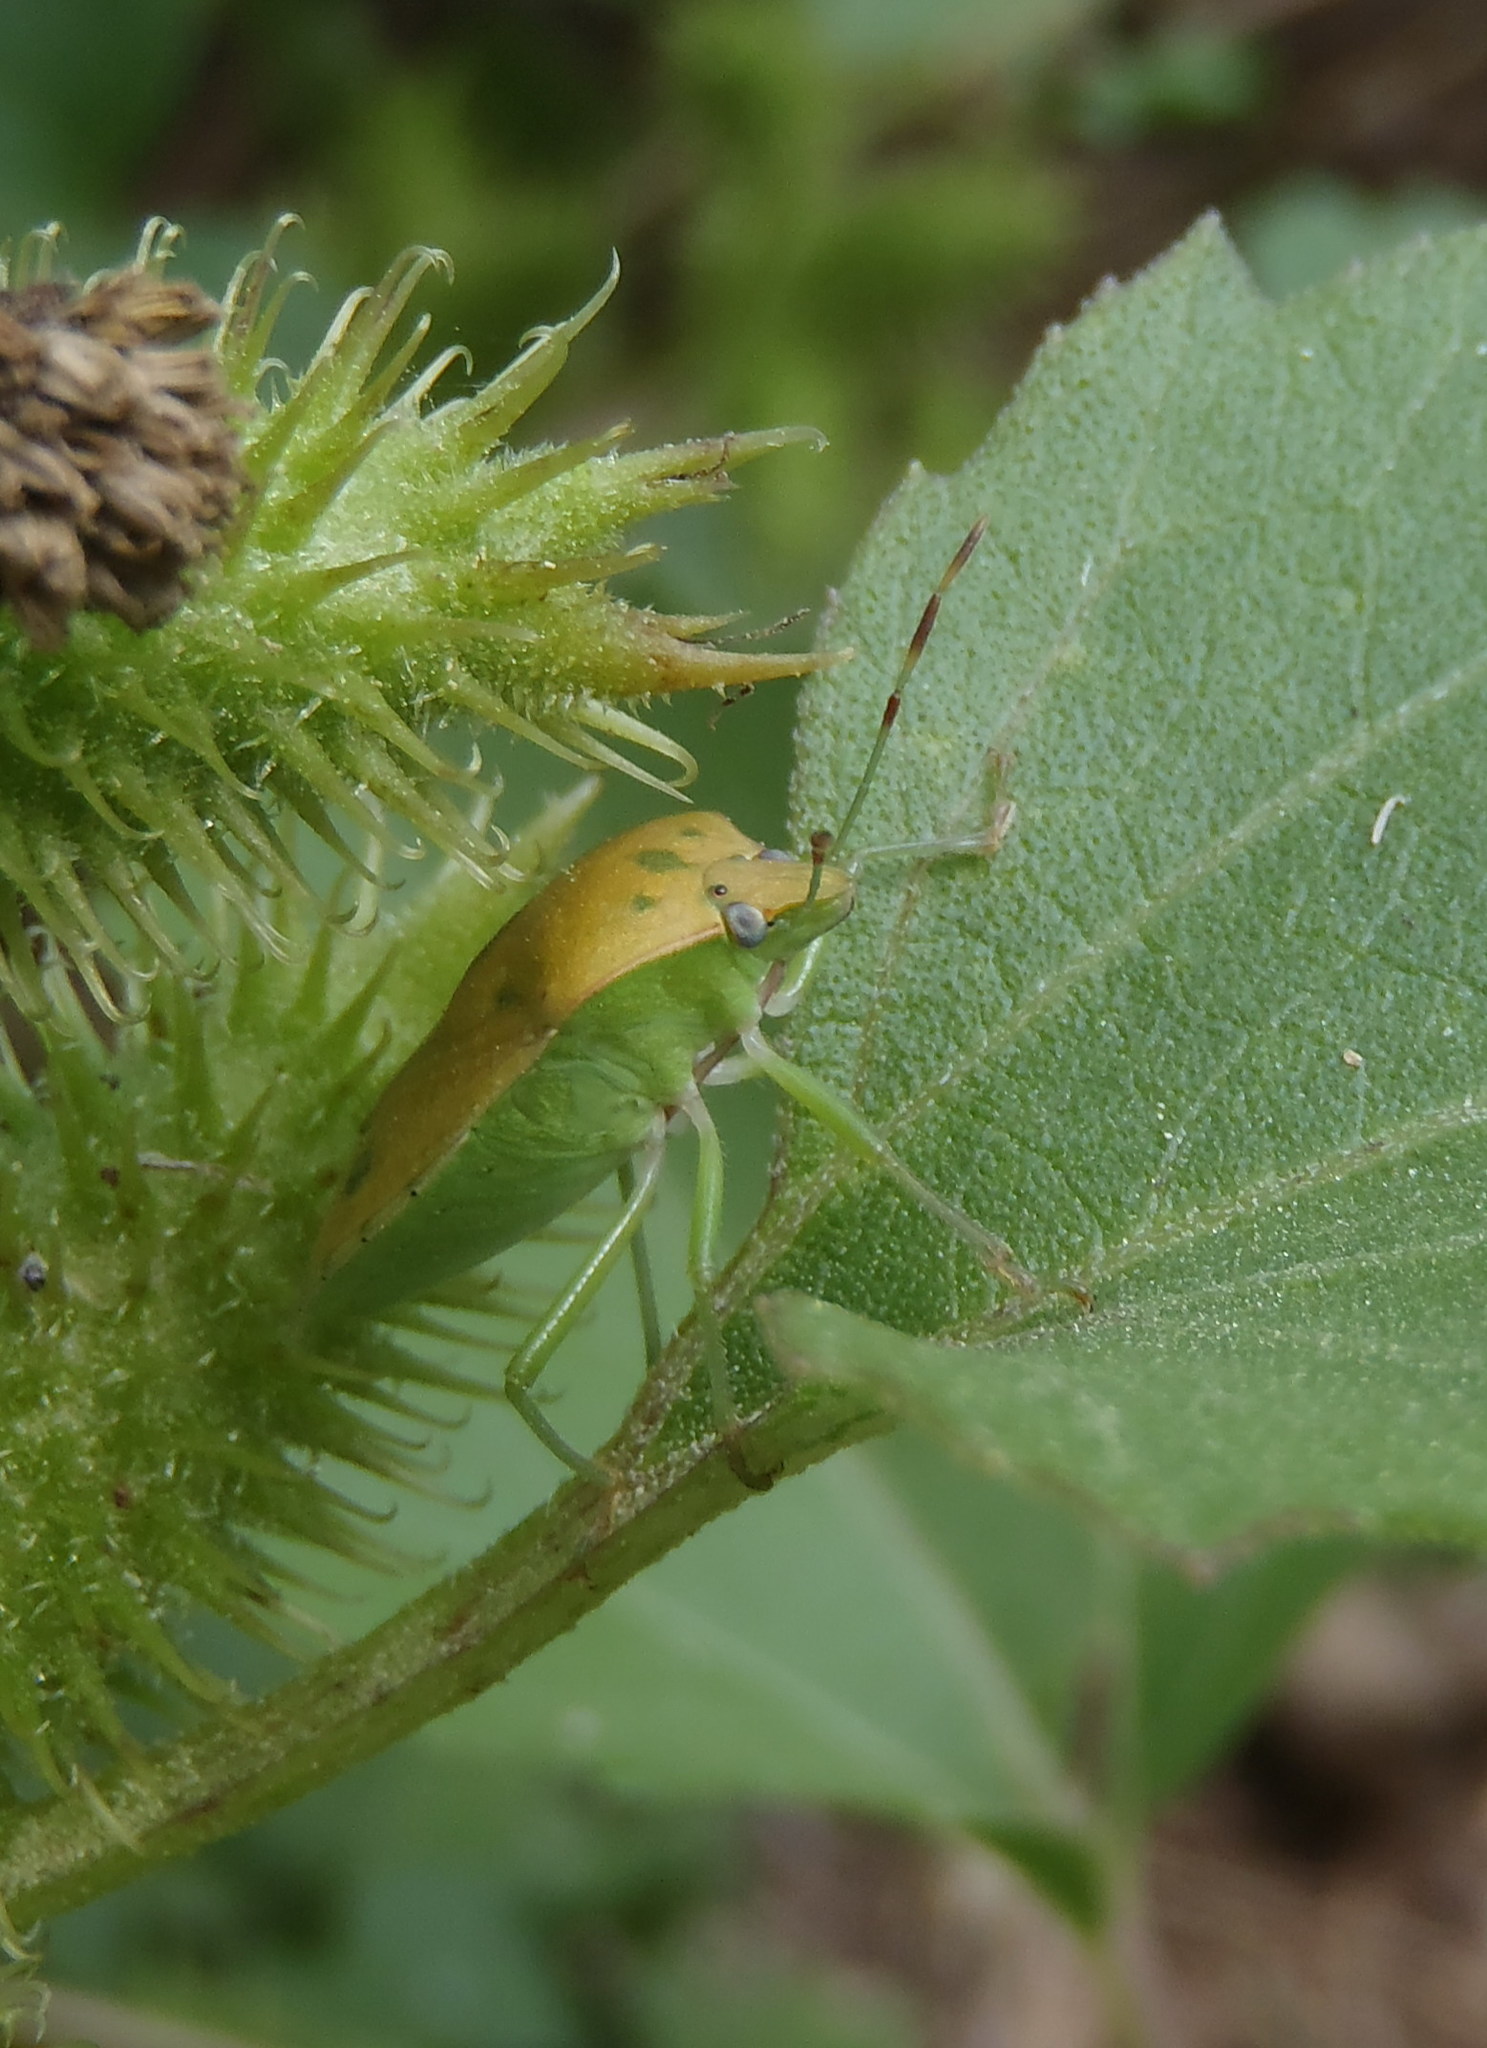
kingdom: Animalia
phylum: Arthropoda
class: Insecta
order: Hemiptera
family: Pentatomidae
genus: Nezara
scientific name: Nezara viridula
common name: Southern green stink bug
